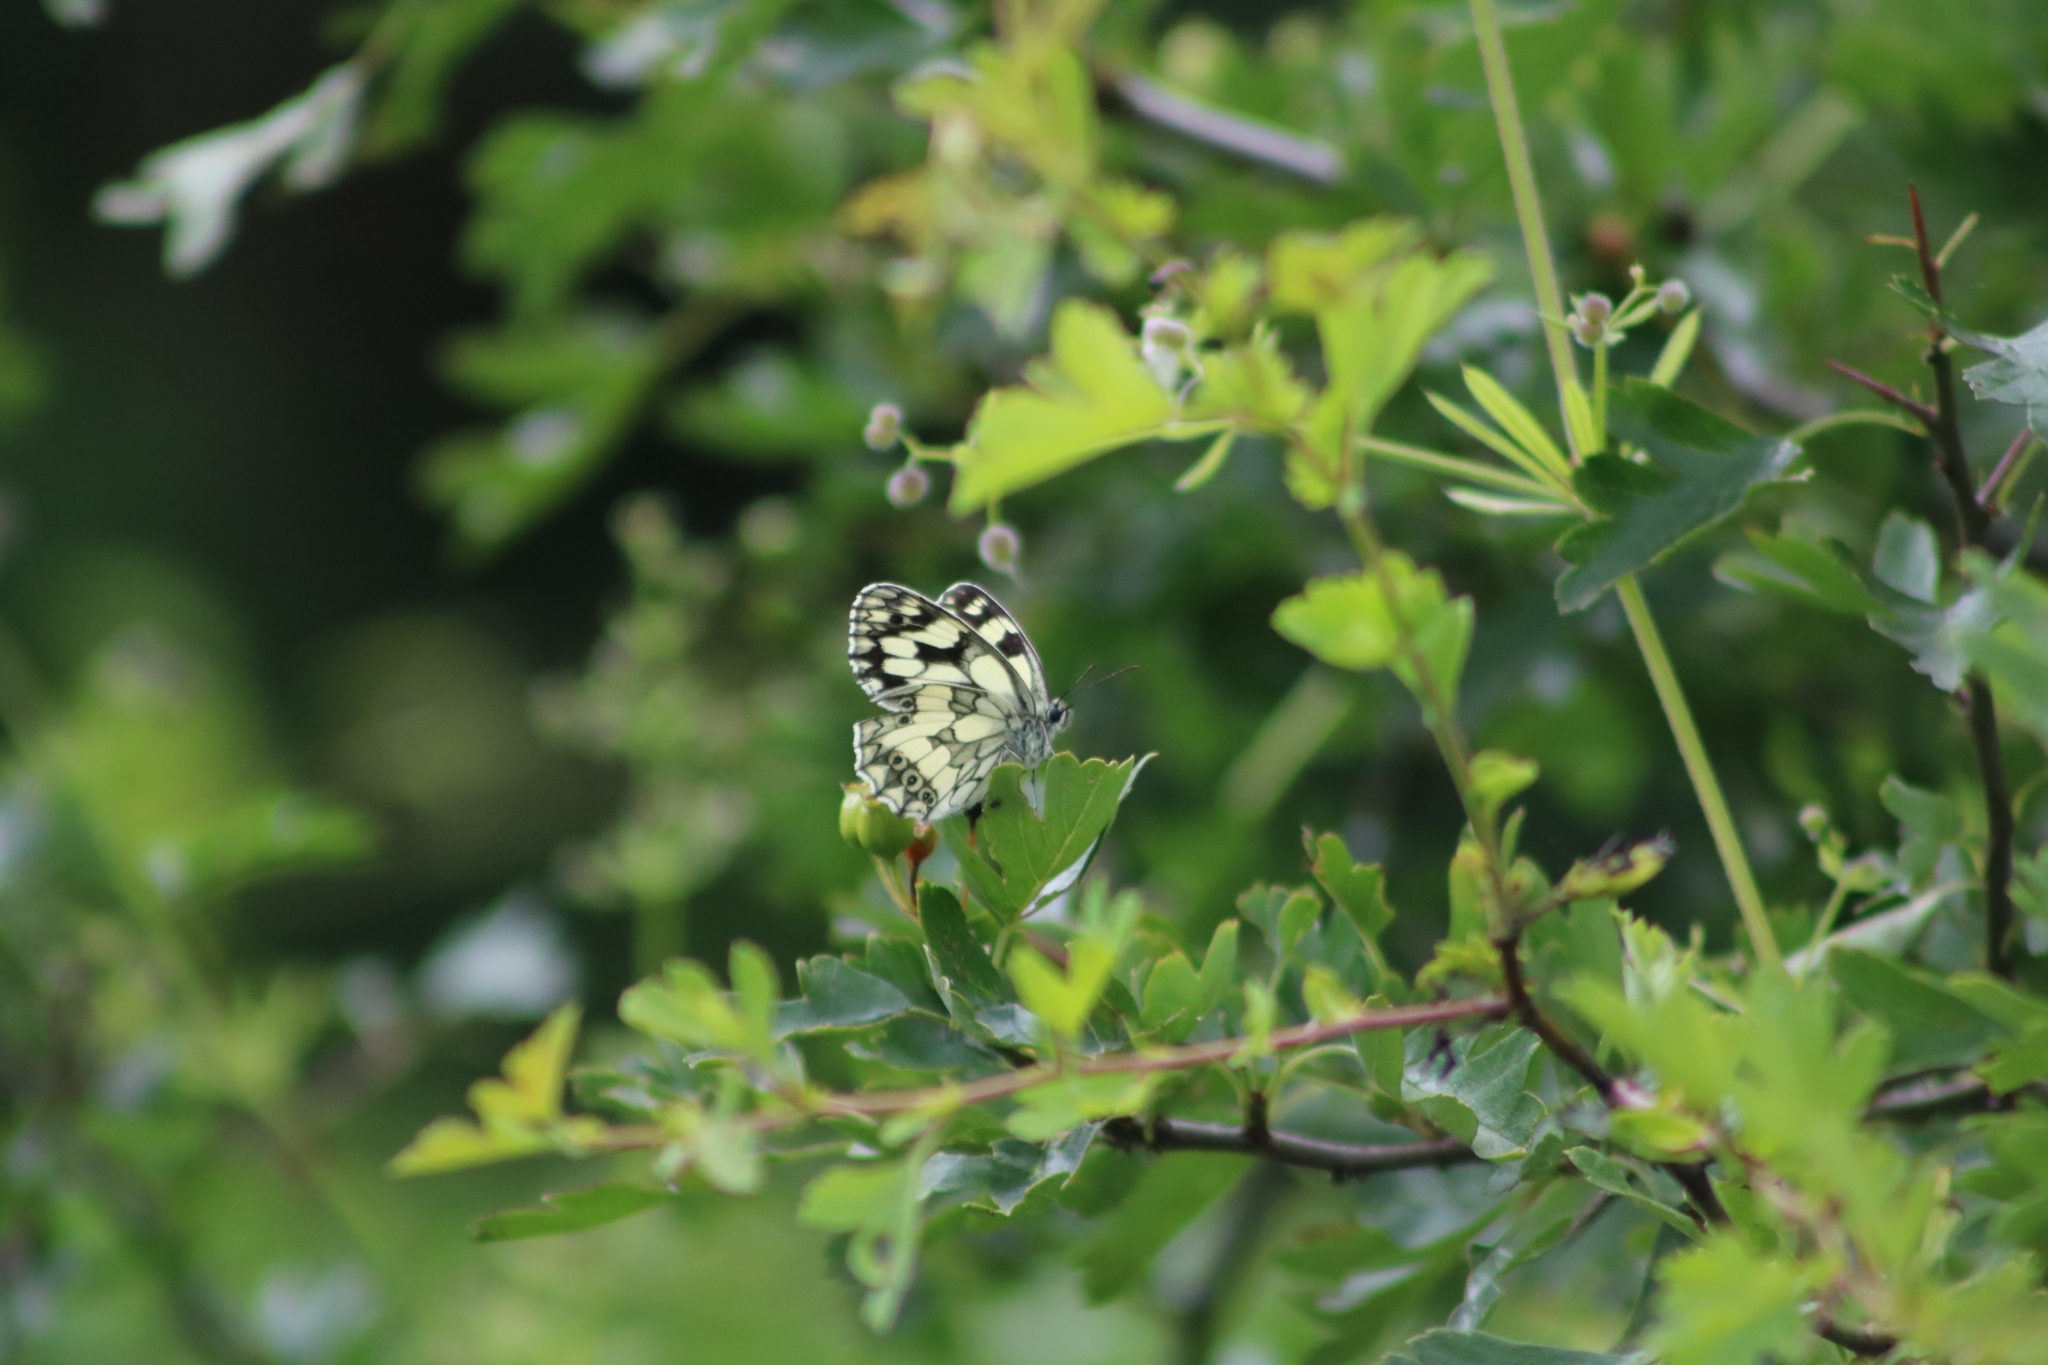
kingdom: Animalia
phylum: Arthropoda
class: Insecta
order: Lepidoptera
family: Nymphalidae
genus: Melanargia
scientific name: Melanargia galathea
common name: Marbled white
